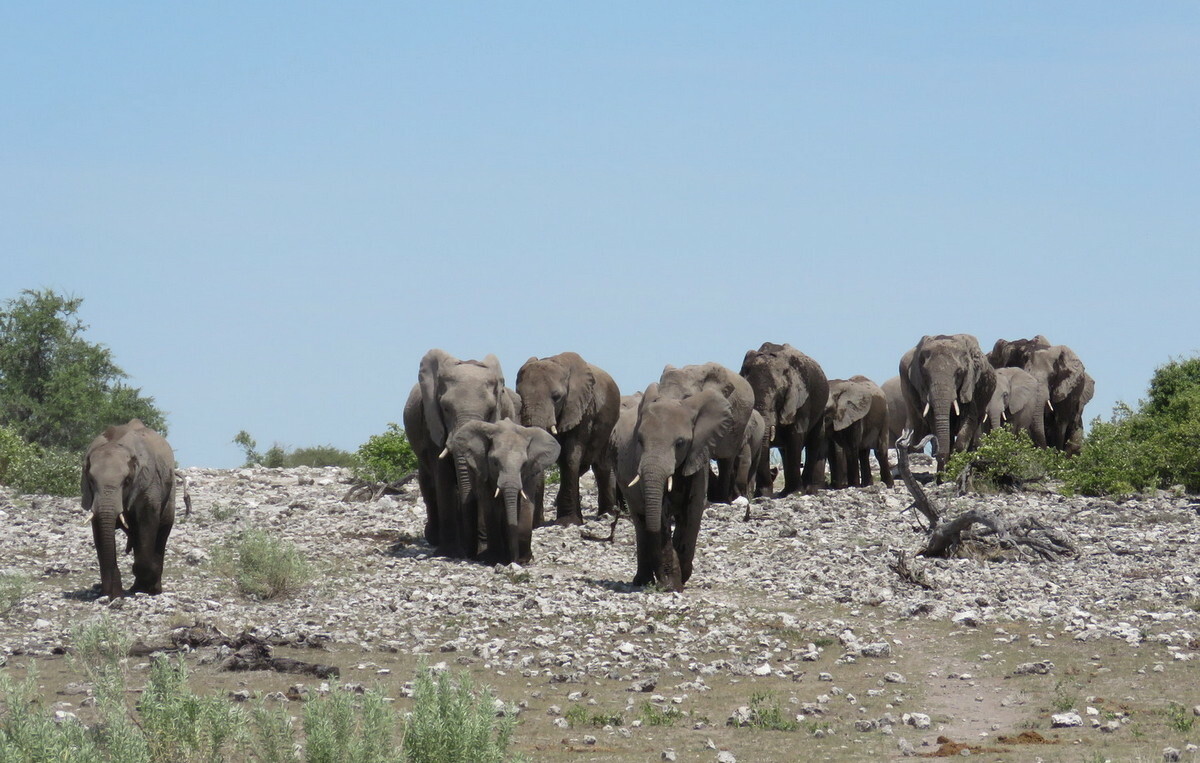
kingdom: Animalia
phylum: Chordata
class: Mammalia
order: Proboscidea
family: Elephantidae
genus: Loxodonta
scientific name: Loxodonta africana
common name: African elephant
